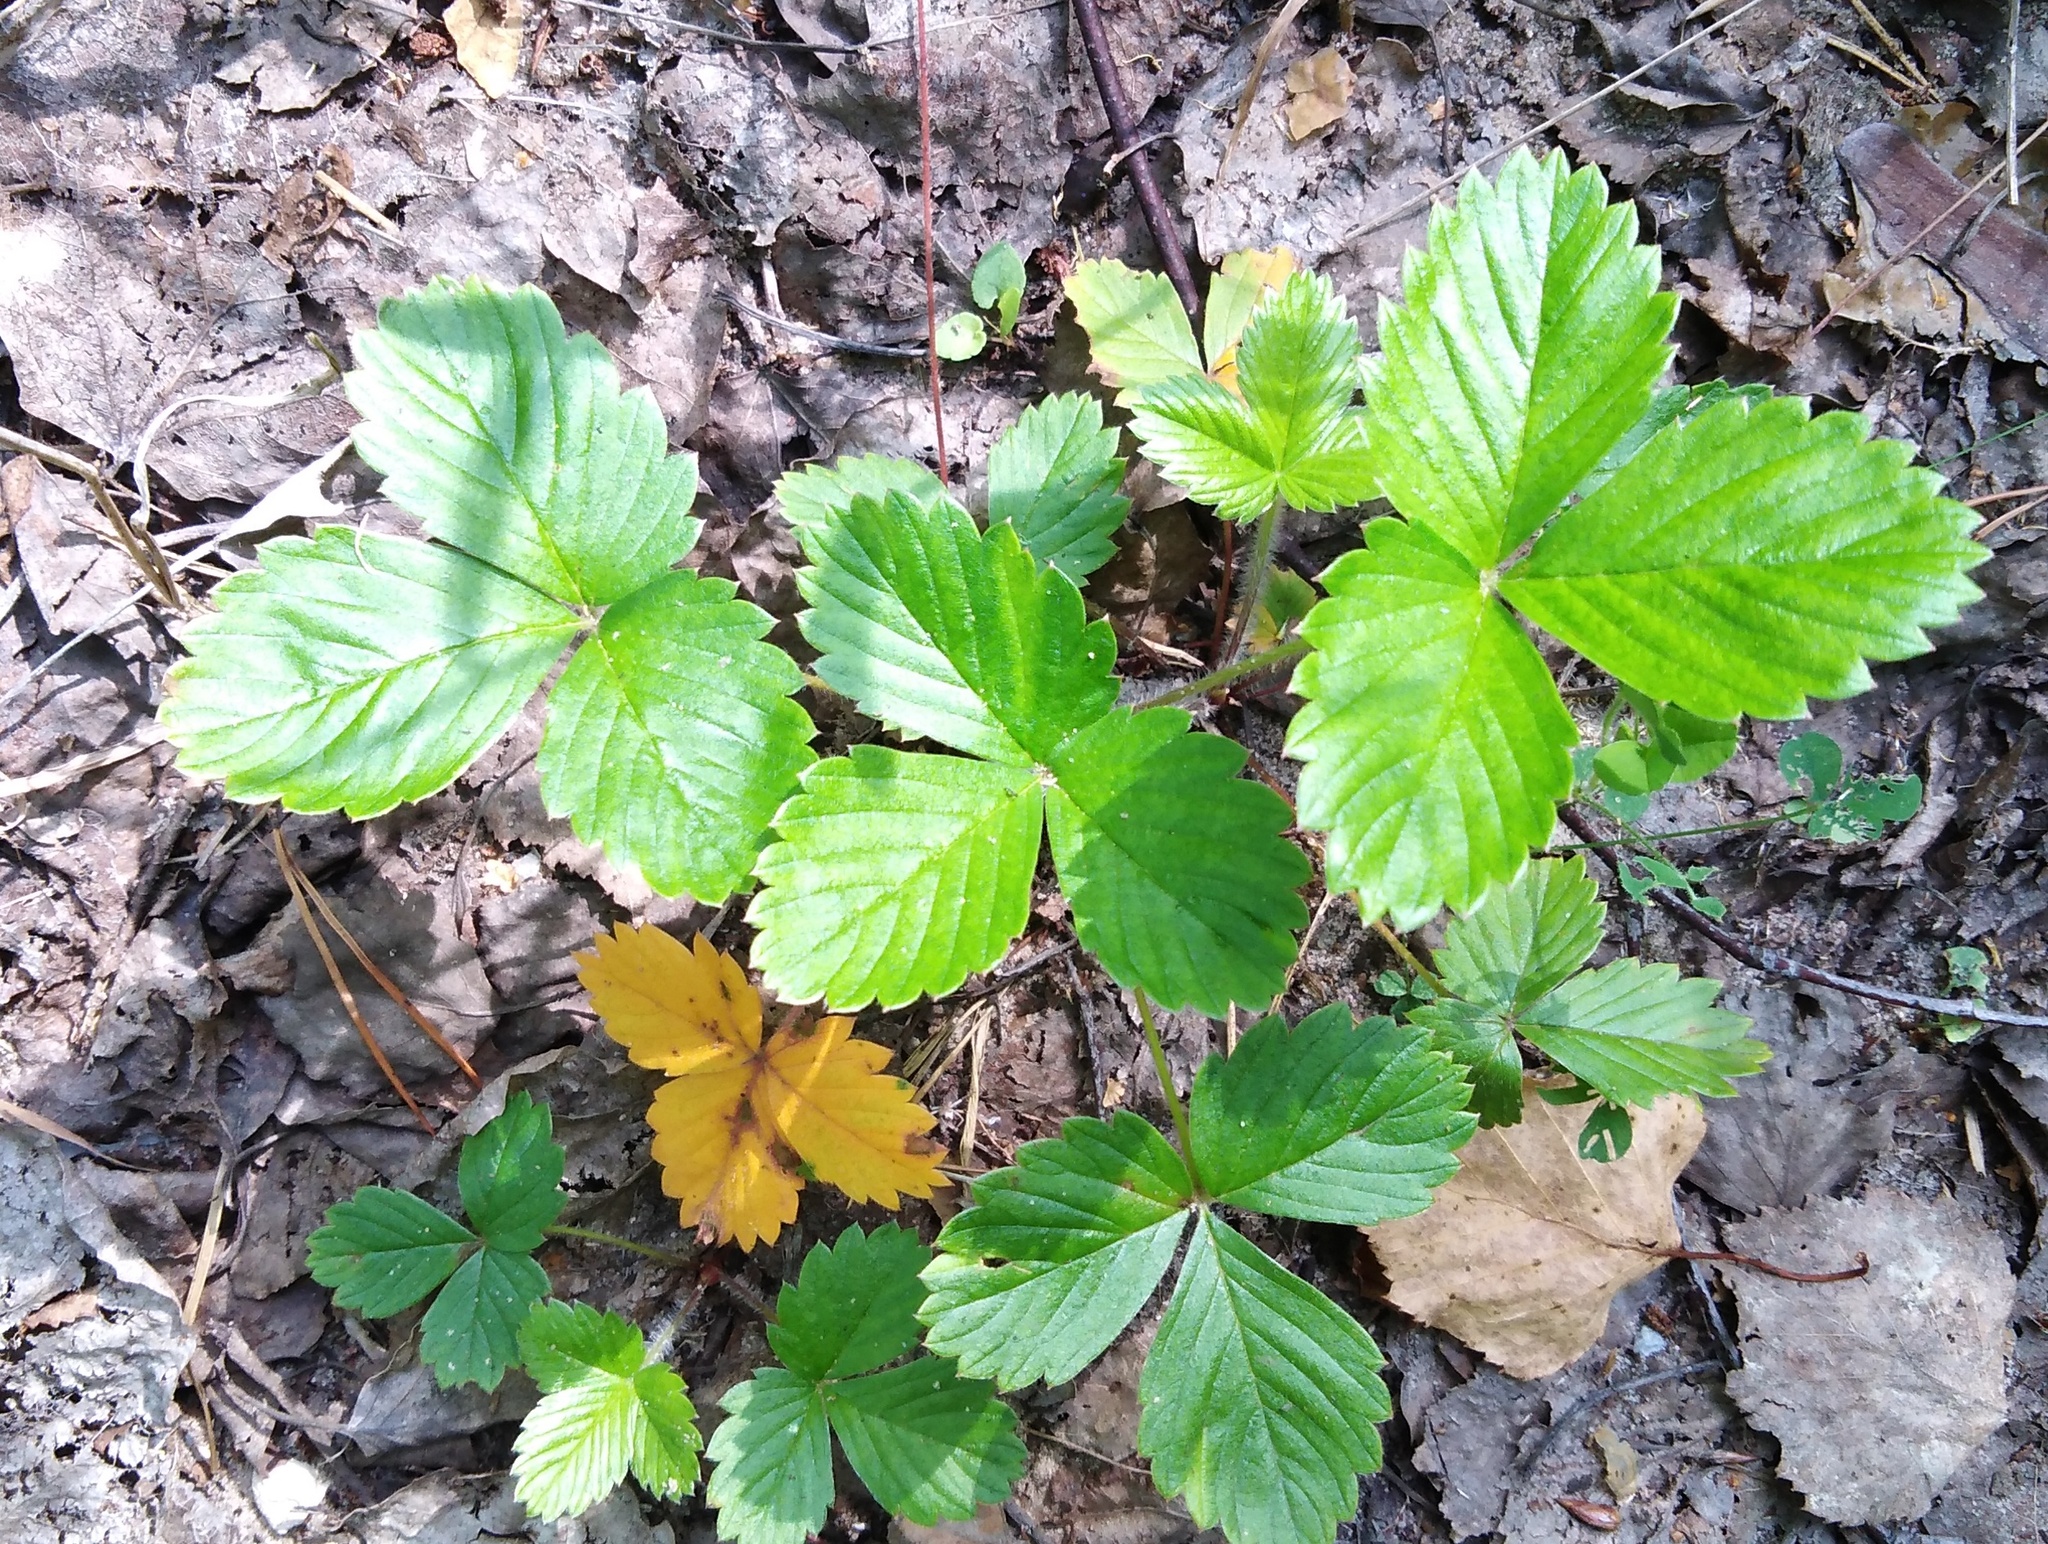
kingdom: Plantae
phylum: Tracheophyta
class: Magnoliopsida
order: Rosales
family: Rosaceae
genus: Fragaria
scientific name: Fragaria vesca
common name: Wild strawberry
